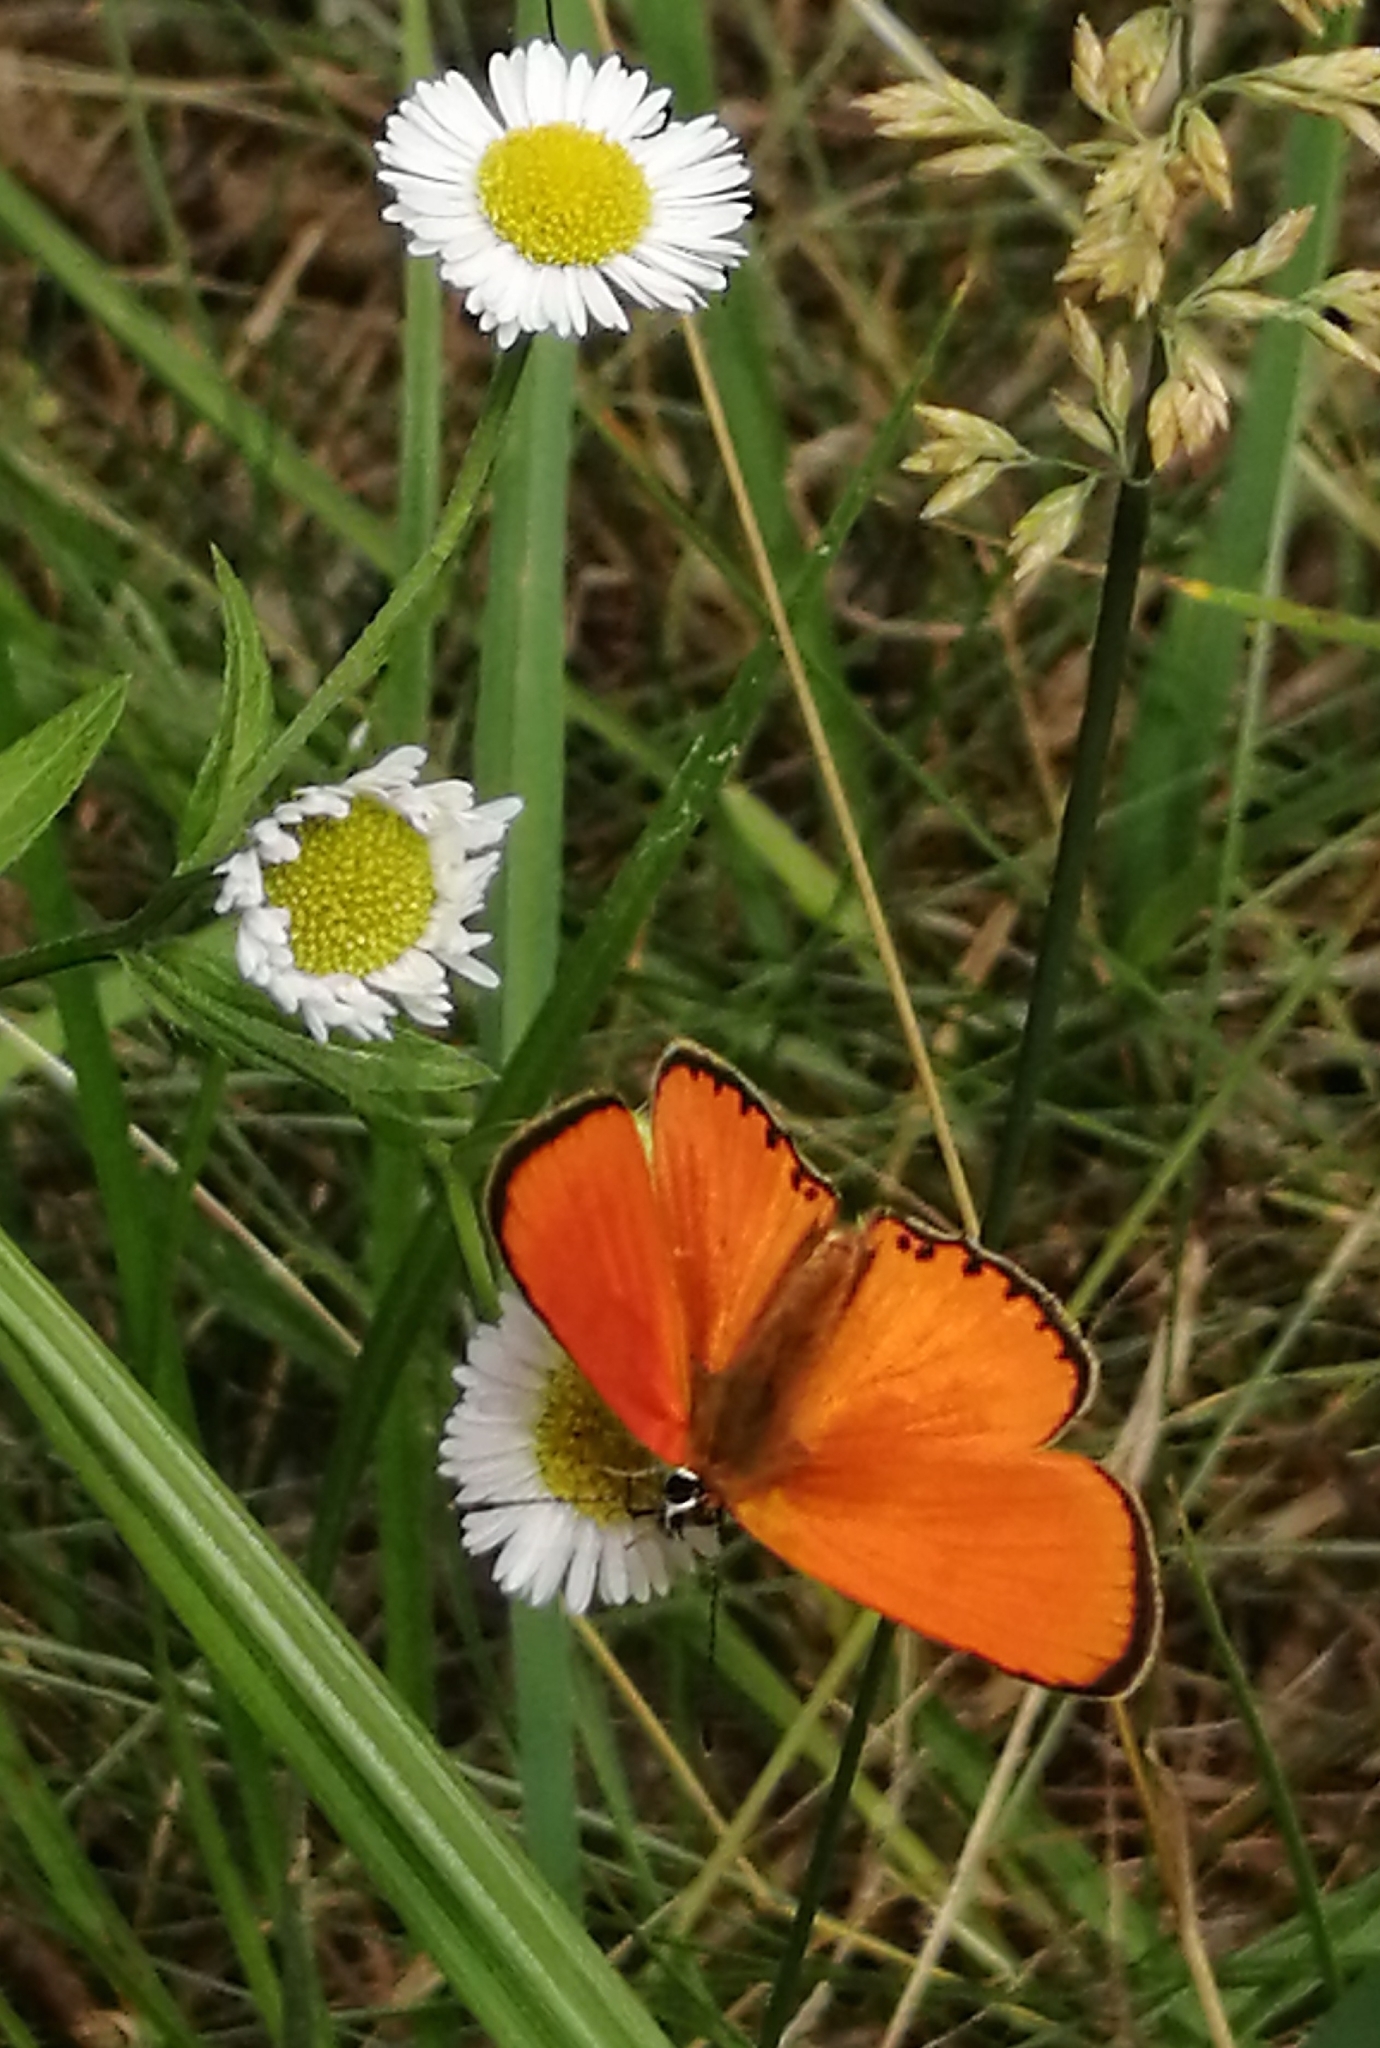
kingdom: Animalia
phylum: Arthropoda
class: Insecta
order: Lepidoptera
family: Lycaenidae
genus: Lycaena
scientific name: Lycaena virgaureae
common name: Scarce copper
